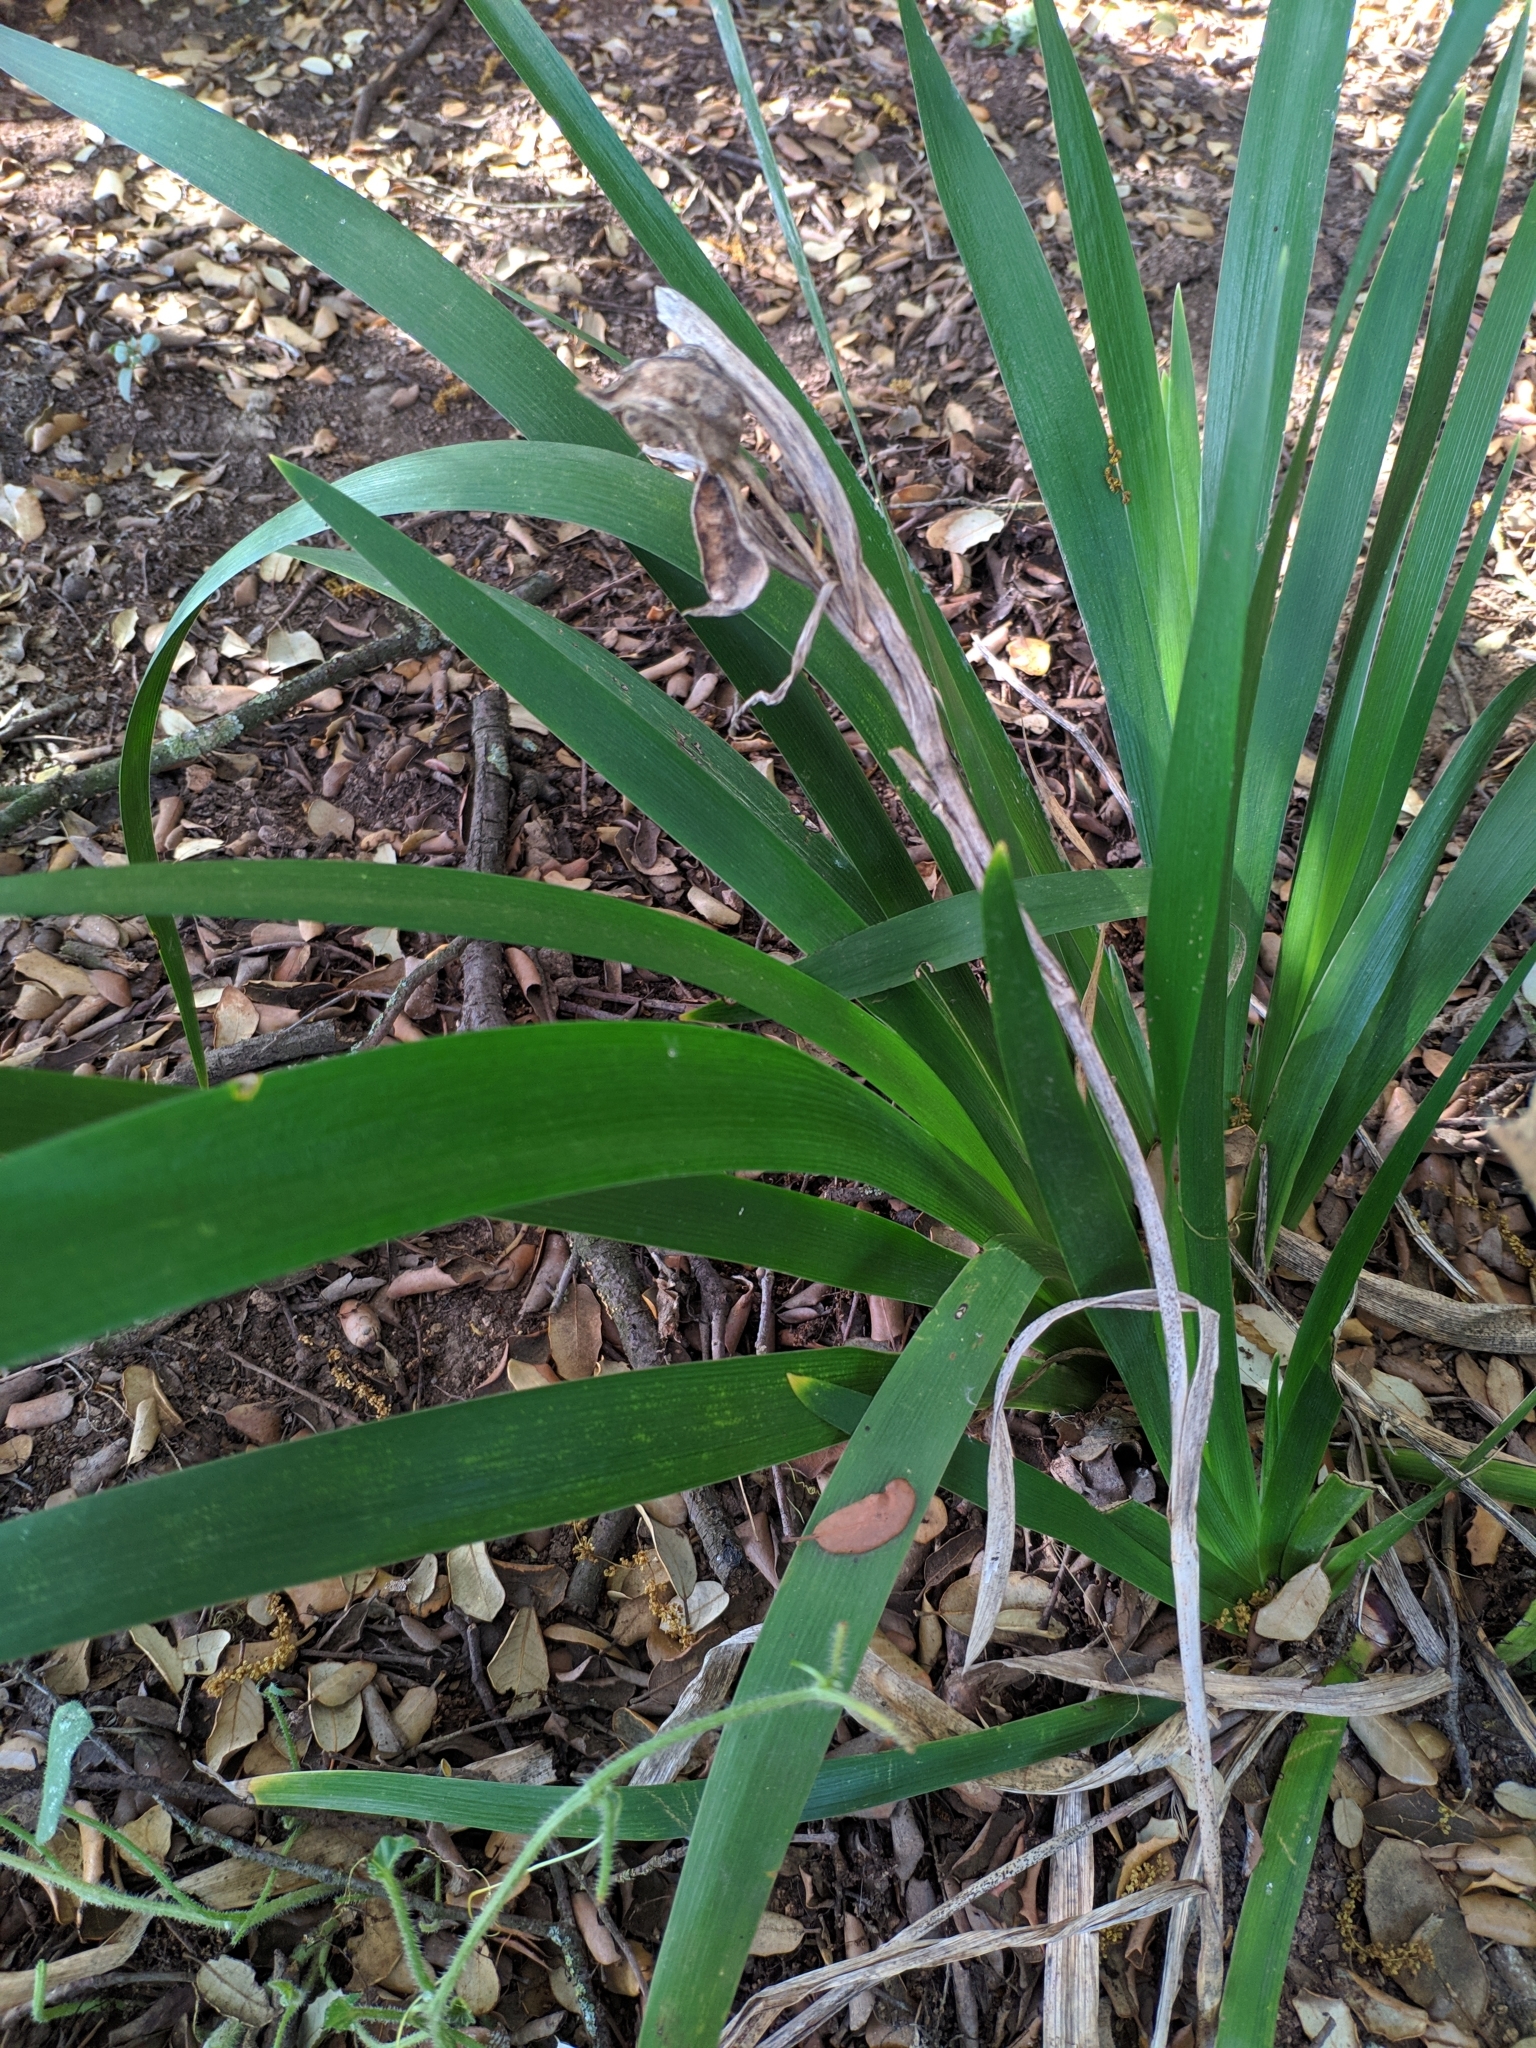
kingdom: Plantae
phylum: Tracheophyta
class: Liliopsida
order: Asparagales
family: Iridaceae
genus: Iris
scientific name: Iris foetidissima
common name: Stinking iris
